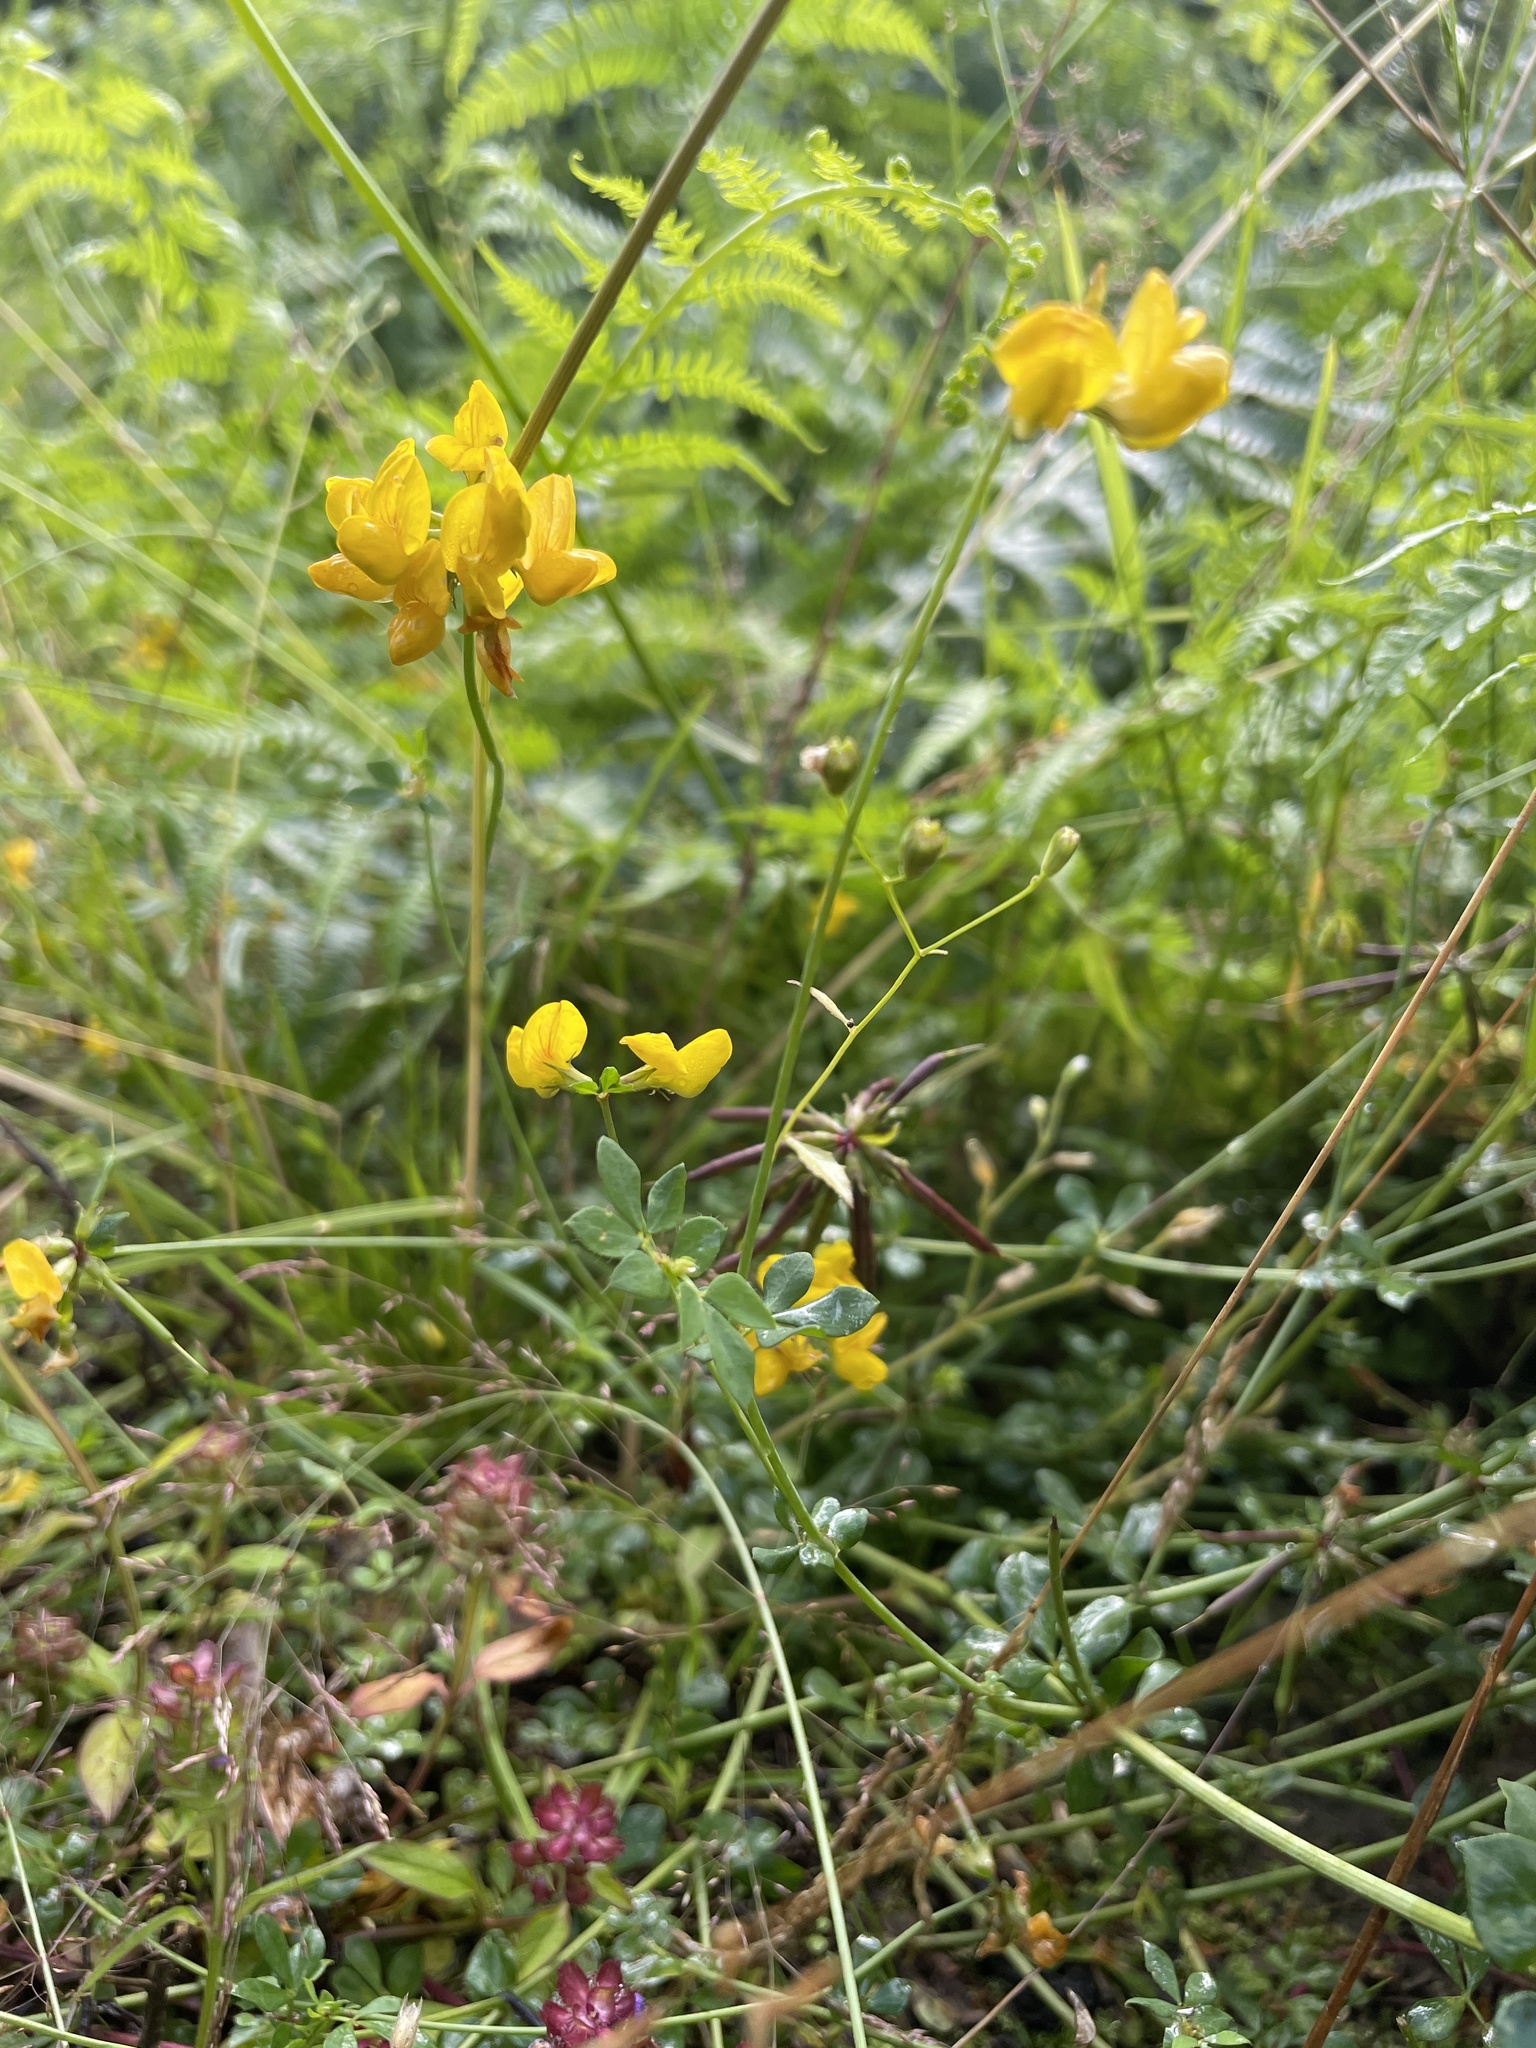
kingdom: Plantae
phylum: Tracheophyta
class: Magnoliopsida
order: Fabales
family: Fabaceae
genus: Lotus
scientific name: Lotus corniculatus
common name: Common bird's-foot-trefoil
